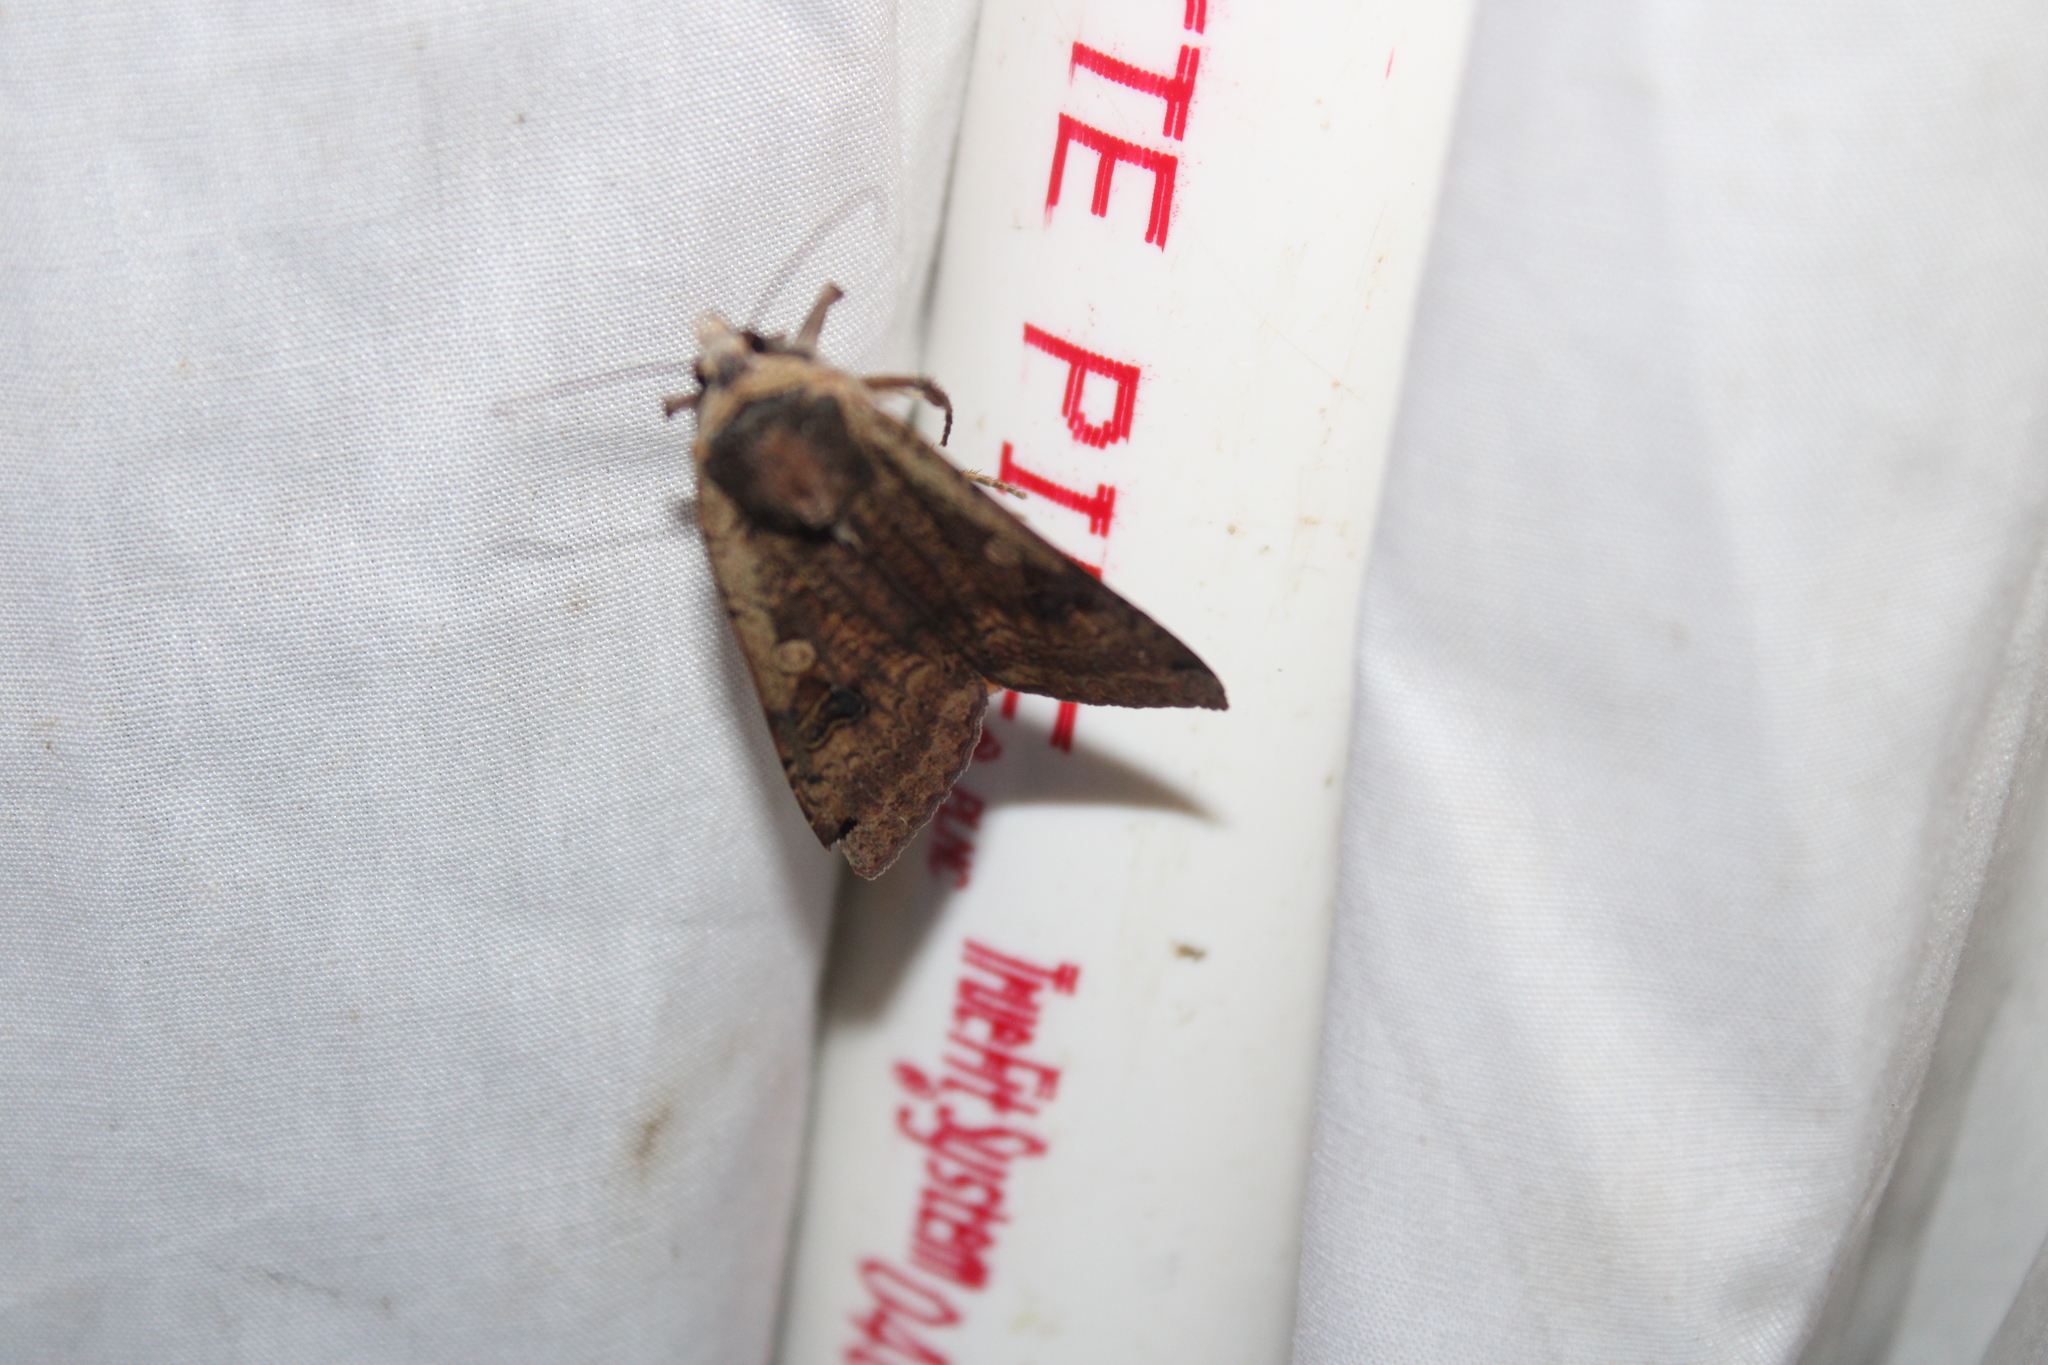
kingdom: Animalia
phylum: Arthropoda
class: Insecta
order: Lepidoptera
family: Noctuidae
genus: Noctua
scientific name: Noctua pronuba
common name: Large yellow underwing
